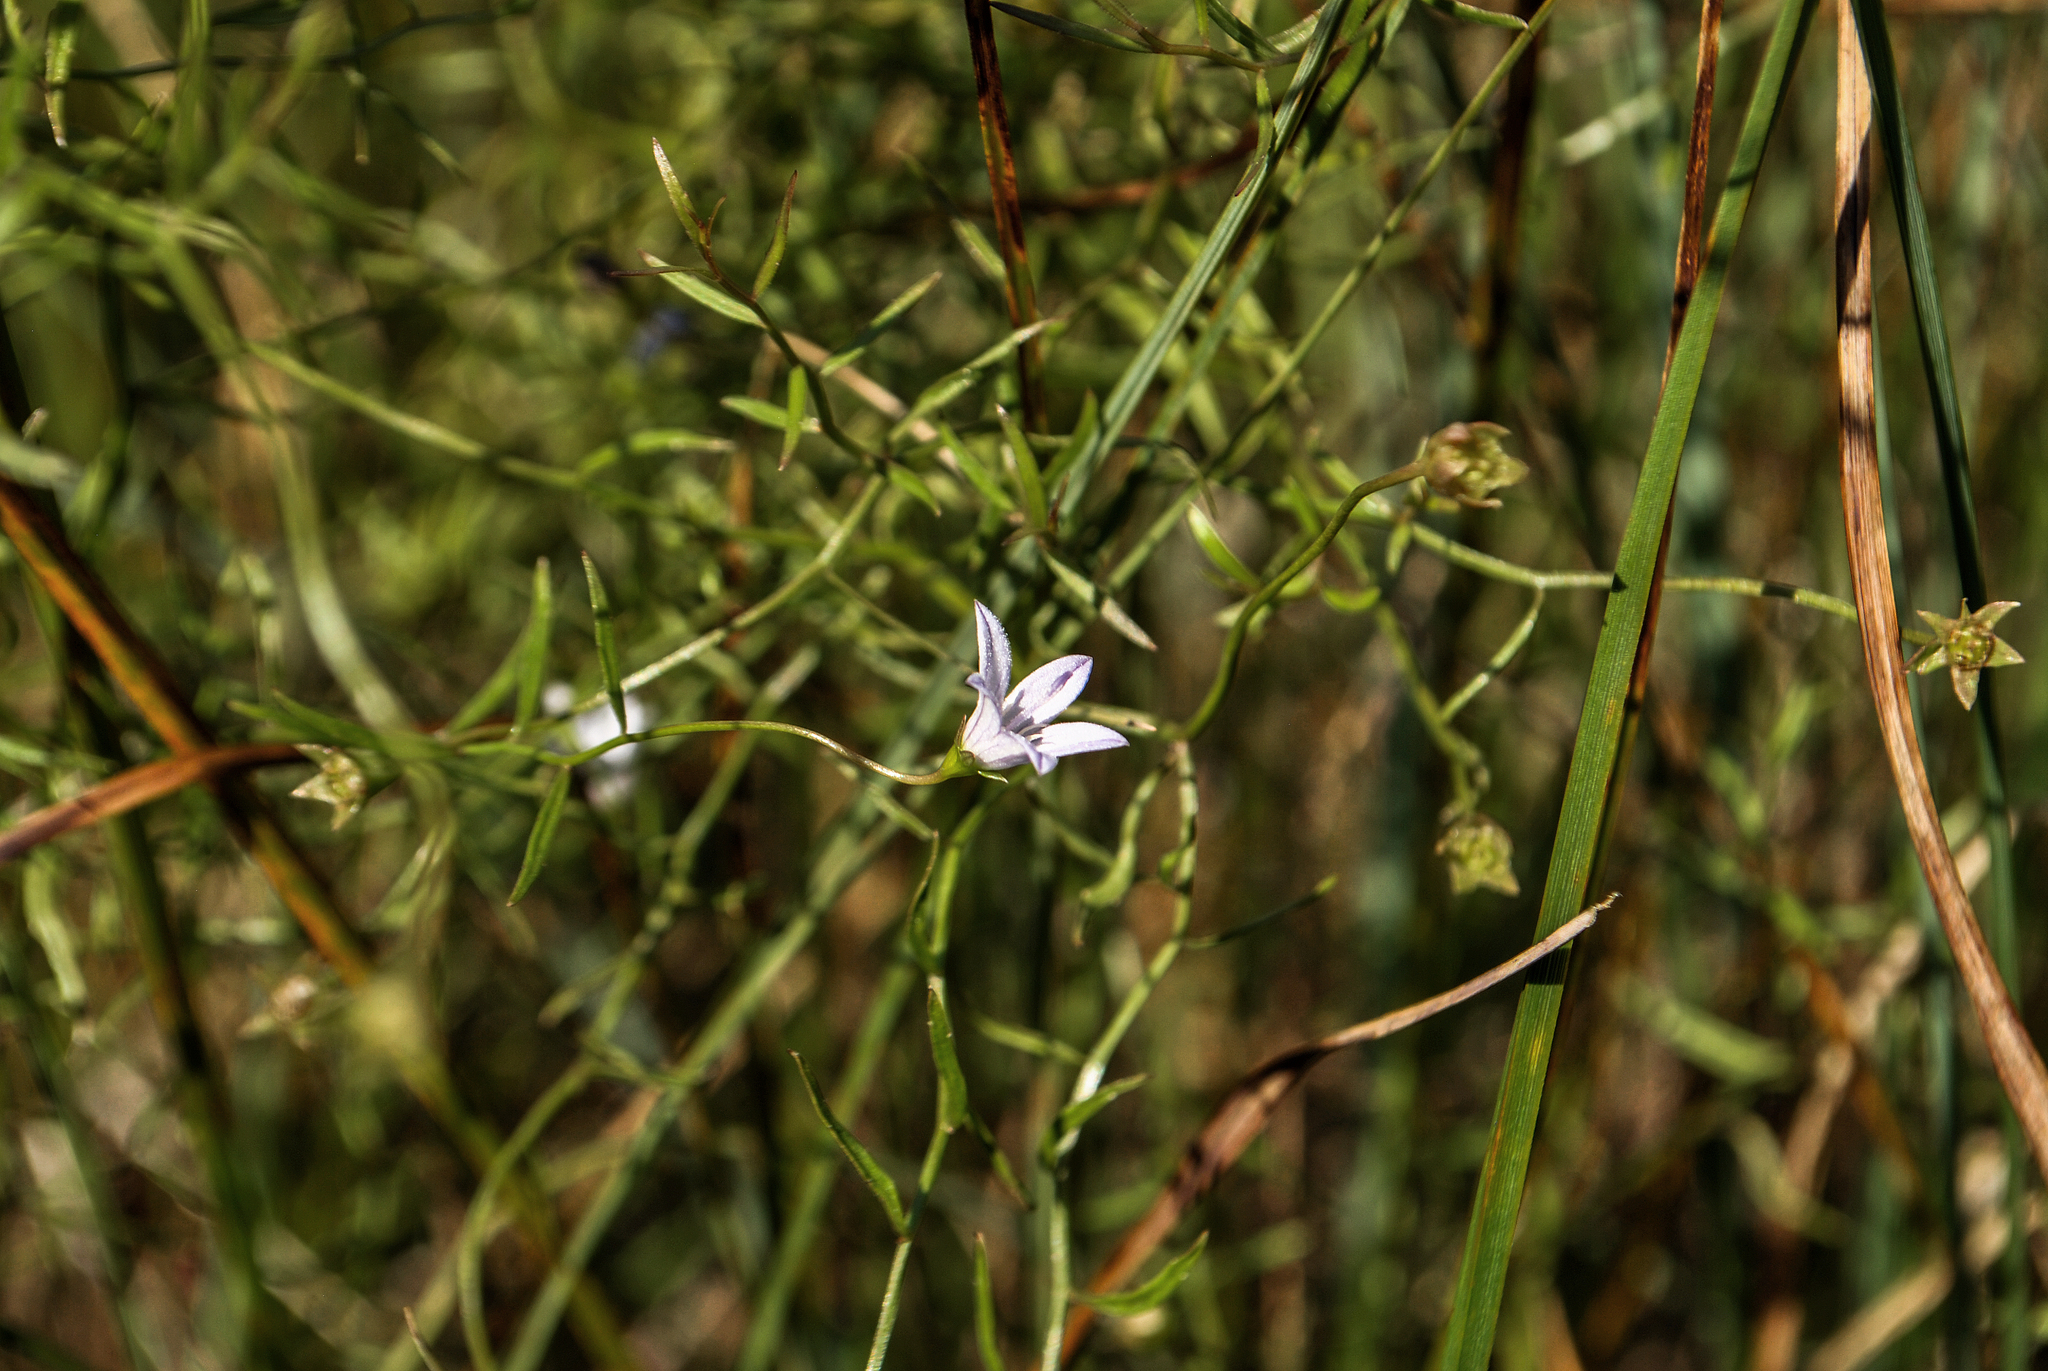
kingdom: Plantae
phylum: Tracheophyta
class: Magnoliopsida
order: Asterales
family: Campanulaceae
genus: Palustricodon
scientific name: Palustricodon aparinoides
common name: Bedstraw bellflower
